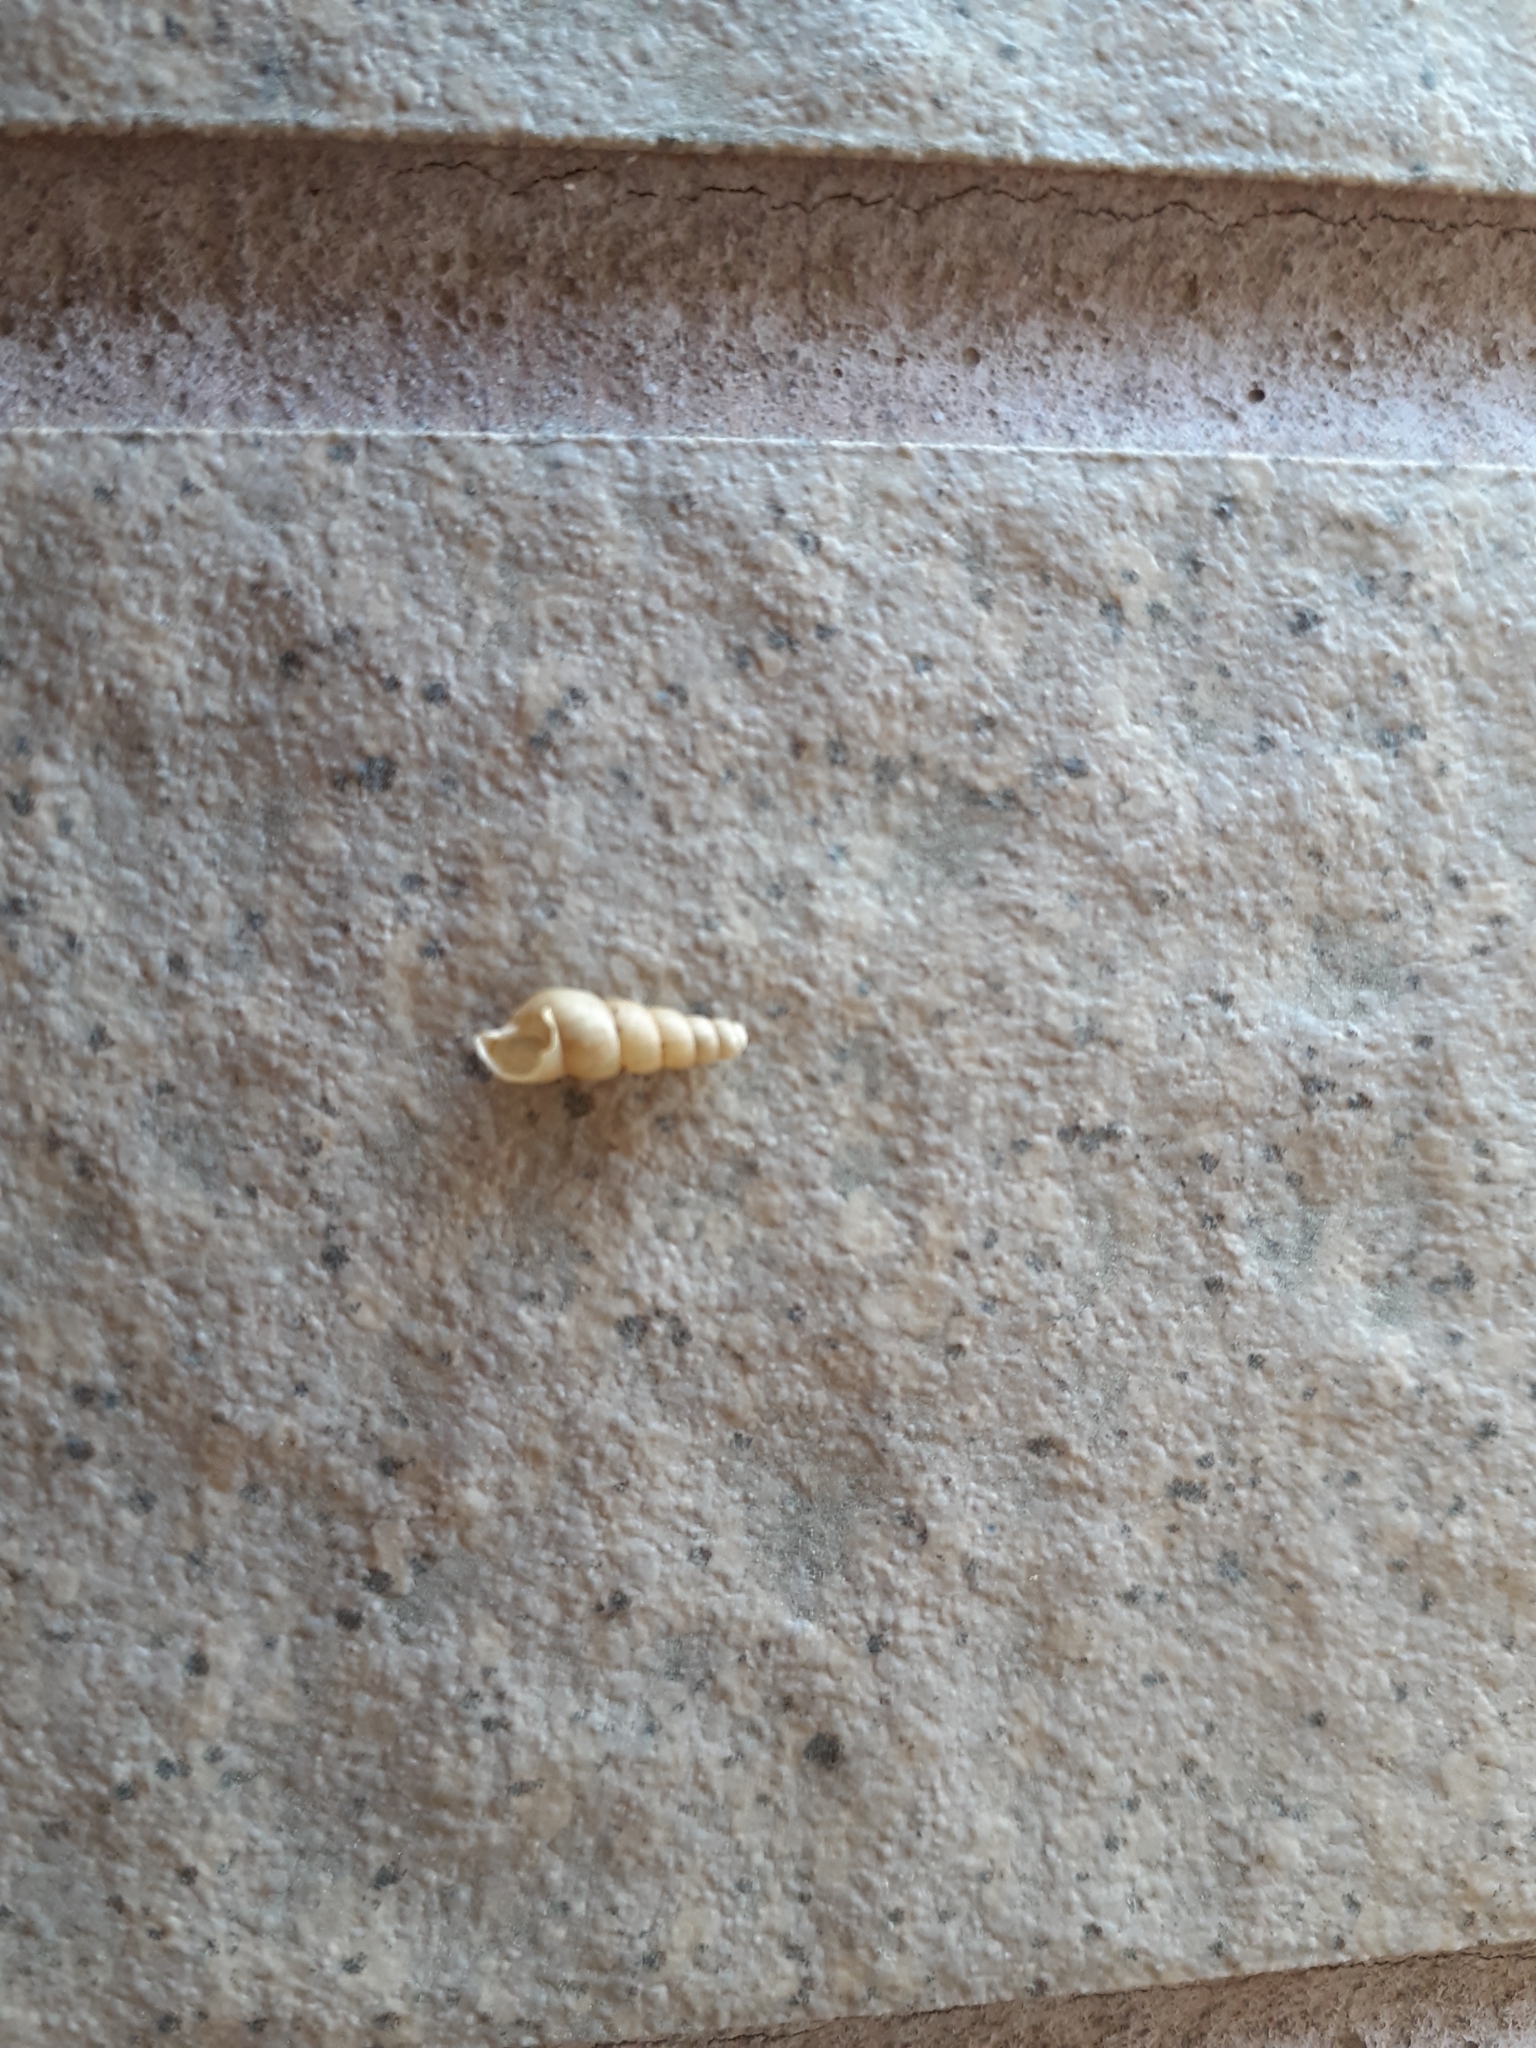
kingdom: Animalia
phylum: Mollusca
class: Gastropoda
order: Stylommatophora
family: Achatinidae
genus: Subulina
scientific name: Subulina octona
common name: Miniature awlsnail
